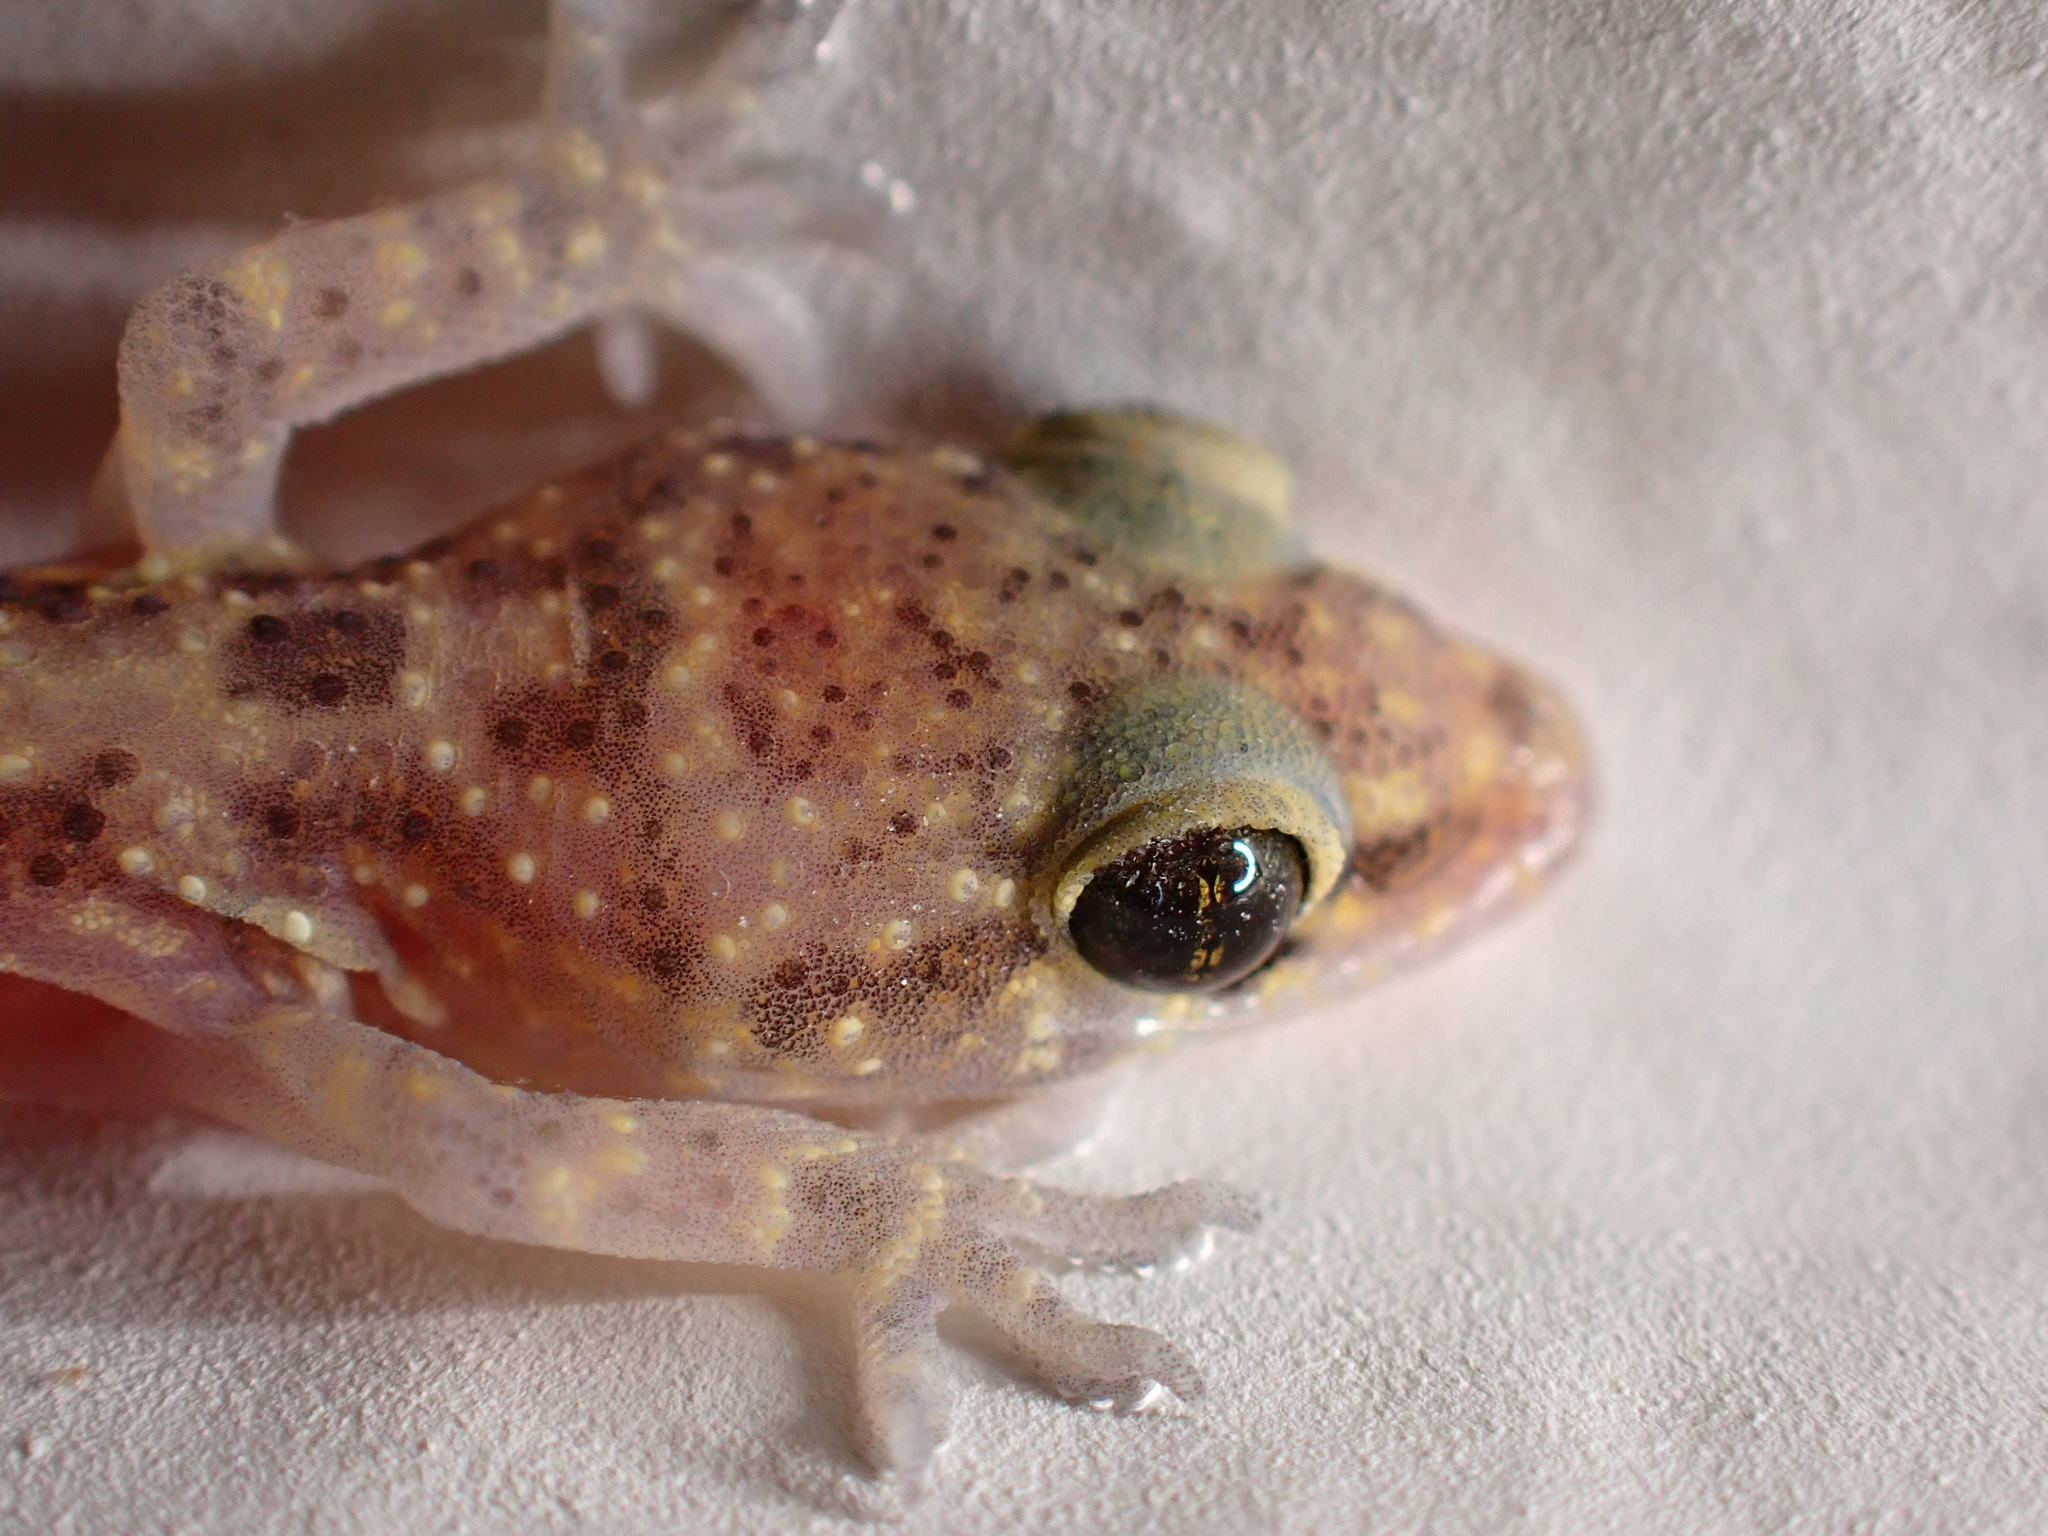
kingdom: Animalia
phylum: Chordata
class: Squamata
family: Gekkonidae
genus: Hemidactylus
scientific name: Hemidactylus turcicus
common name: Turkish gecko
